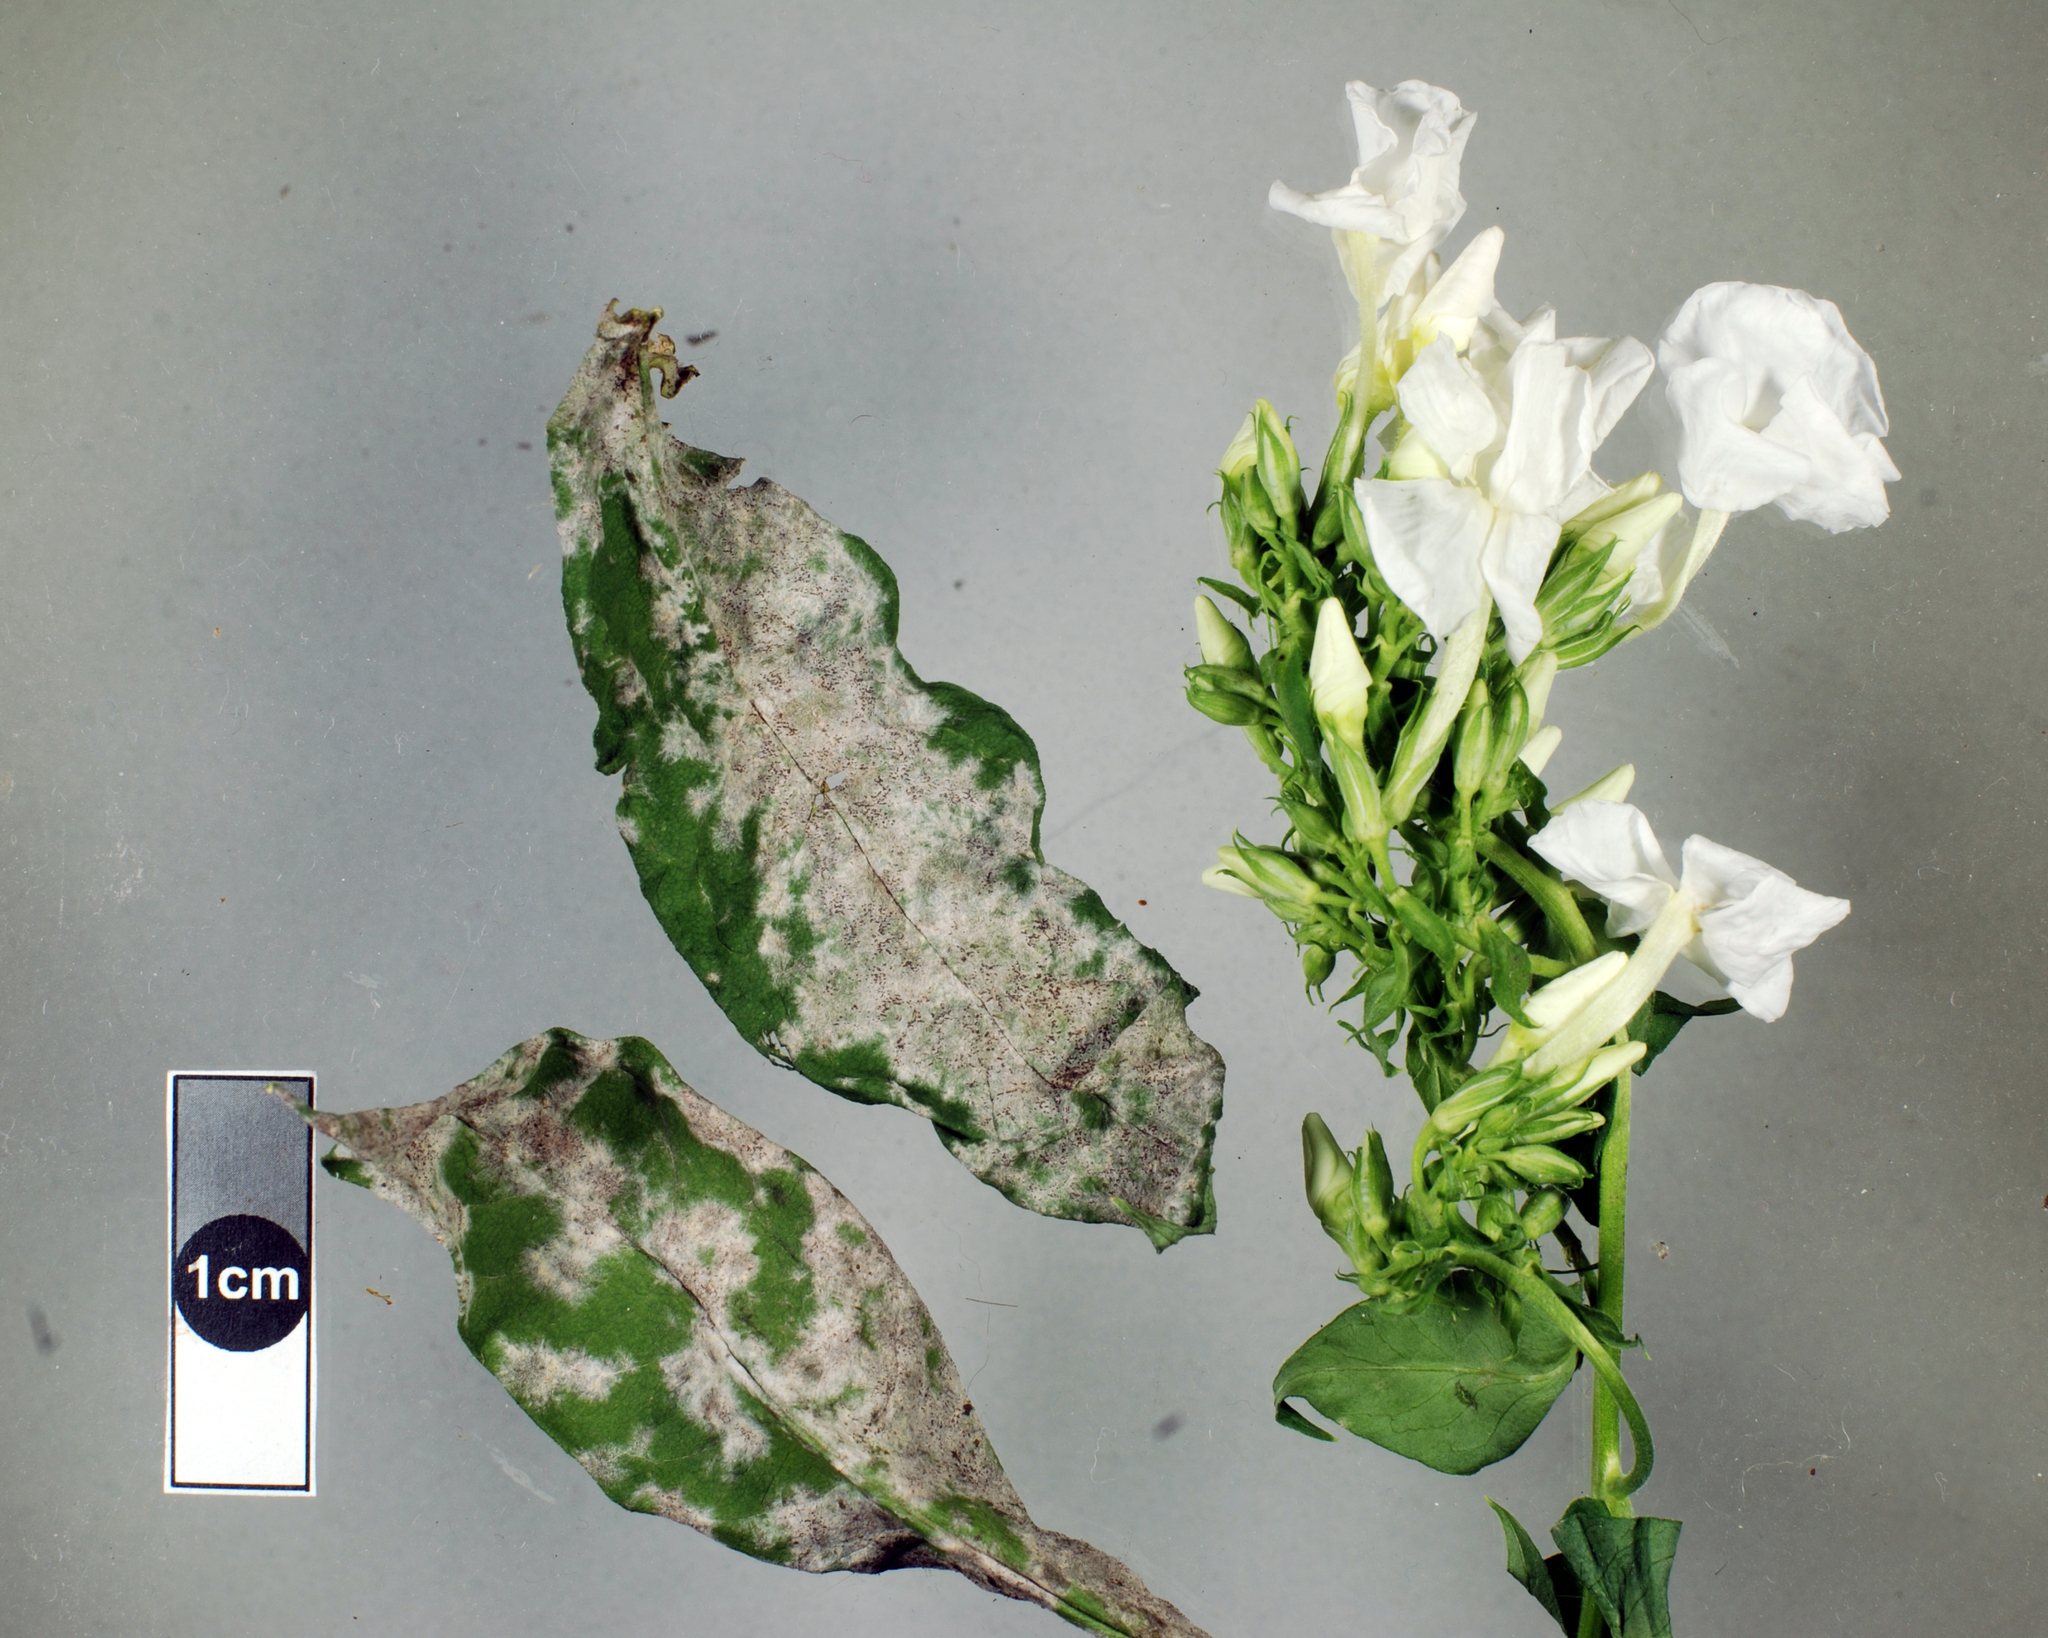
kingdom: Fungi
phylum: Ascomycota
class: Leotiomycetes
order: Helotiales
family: Erysiphaceae
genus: Golovinomyces
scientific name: Golovinomyces magnicellulatus
